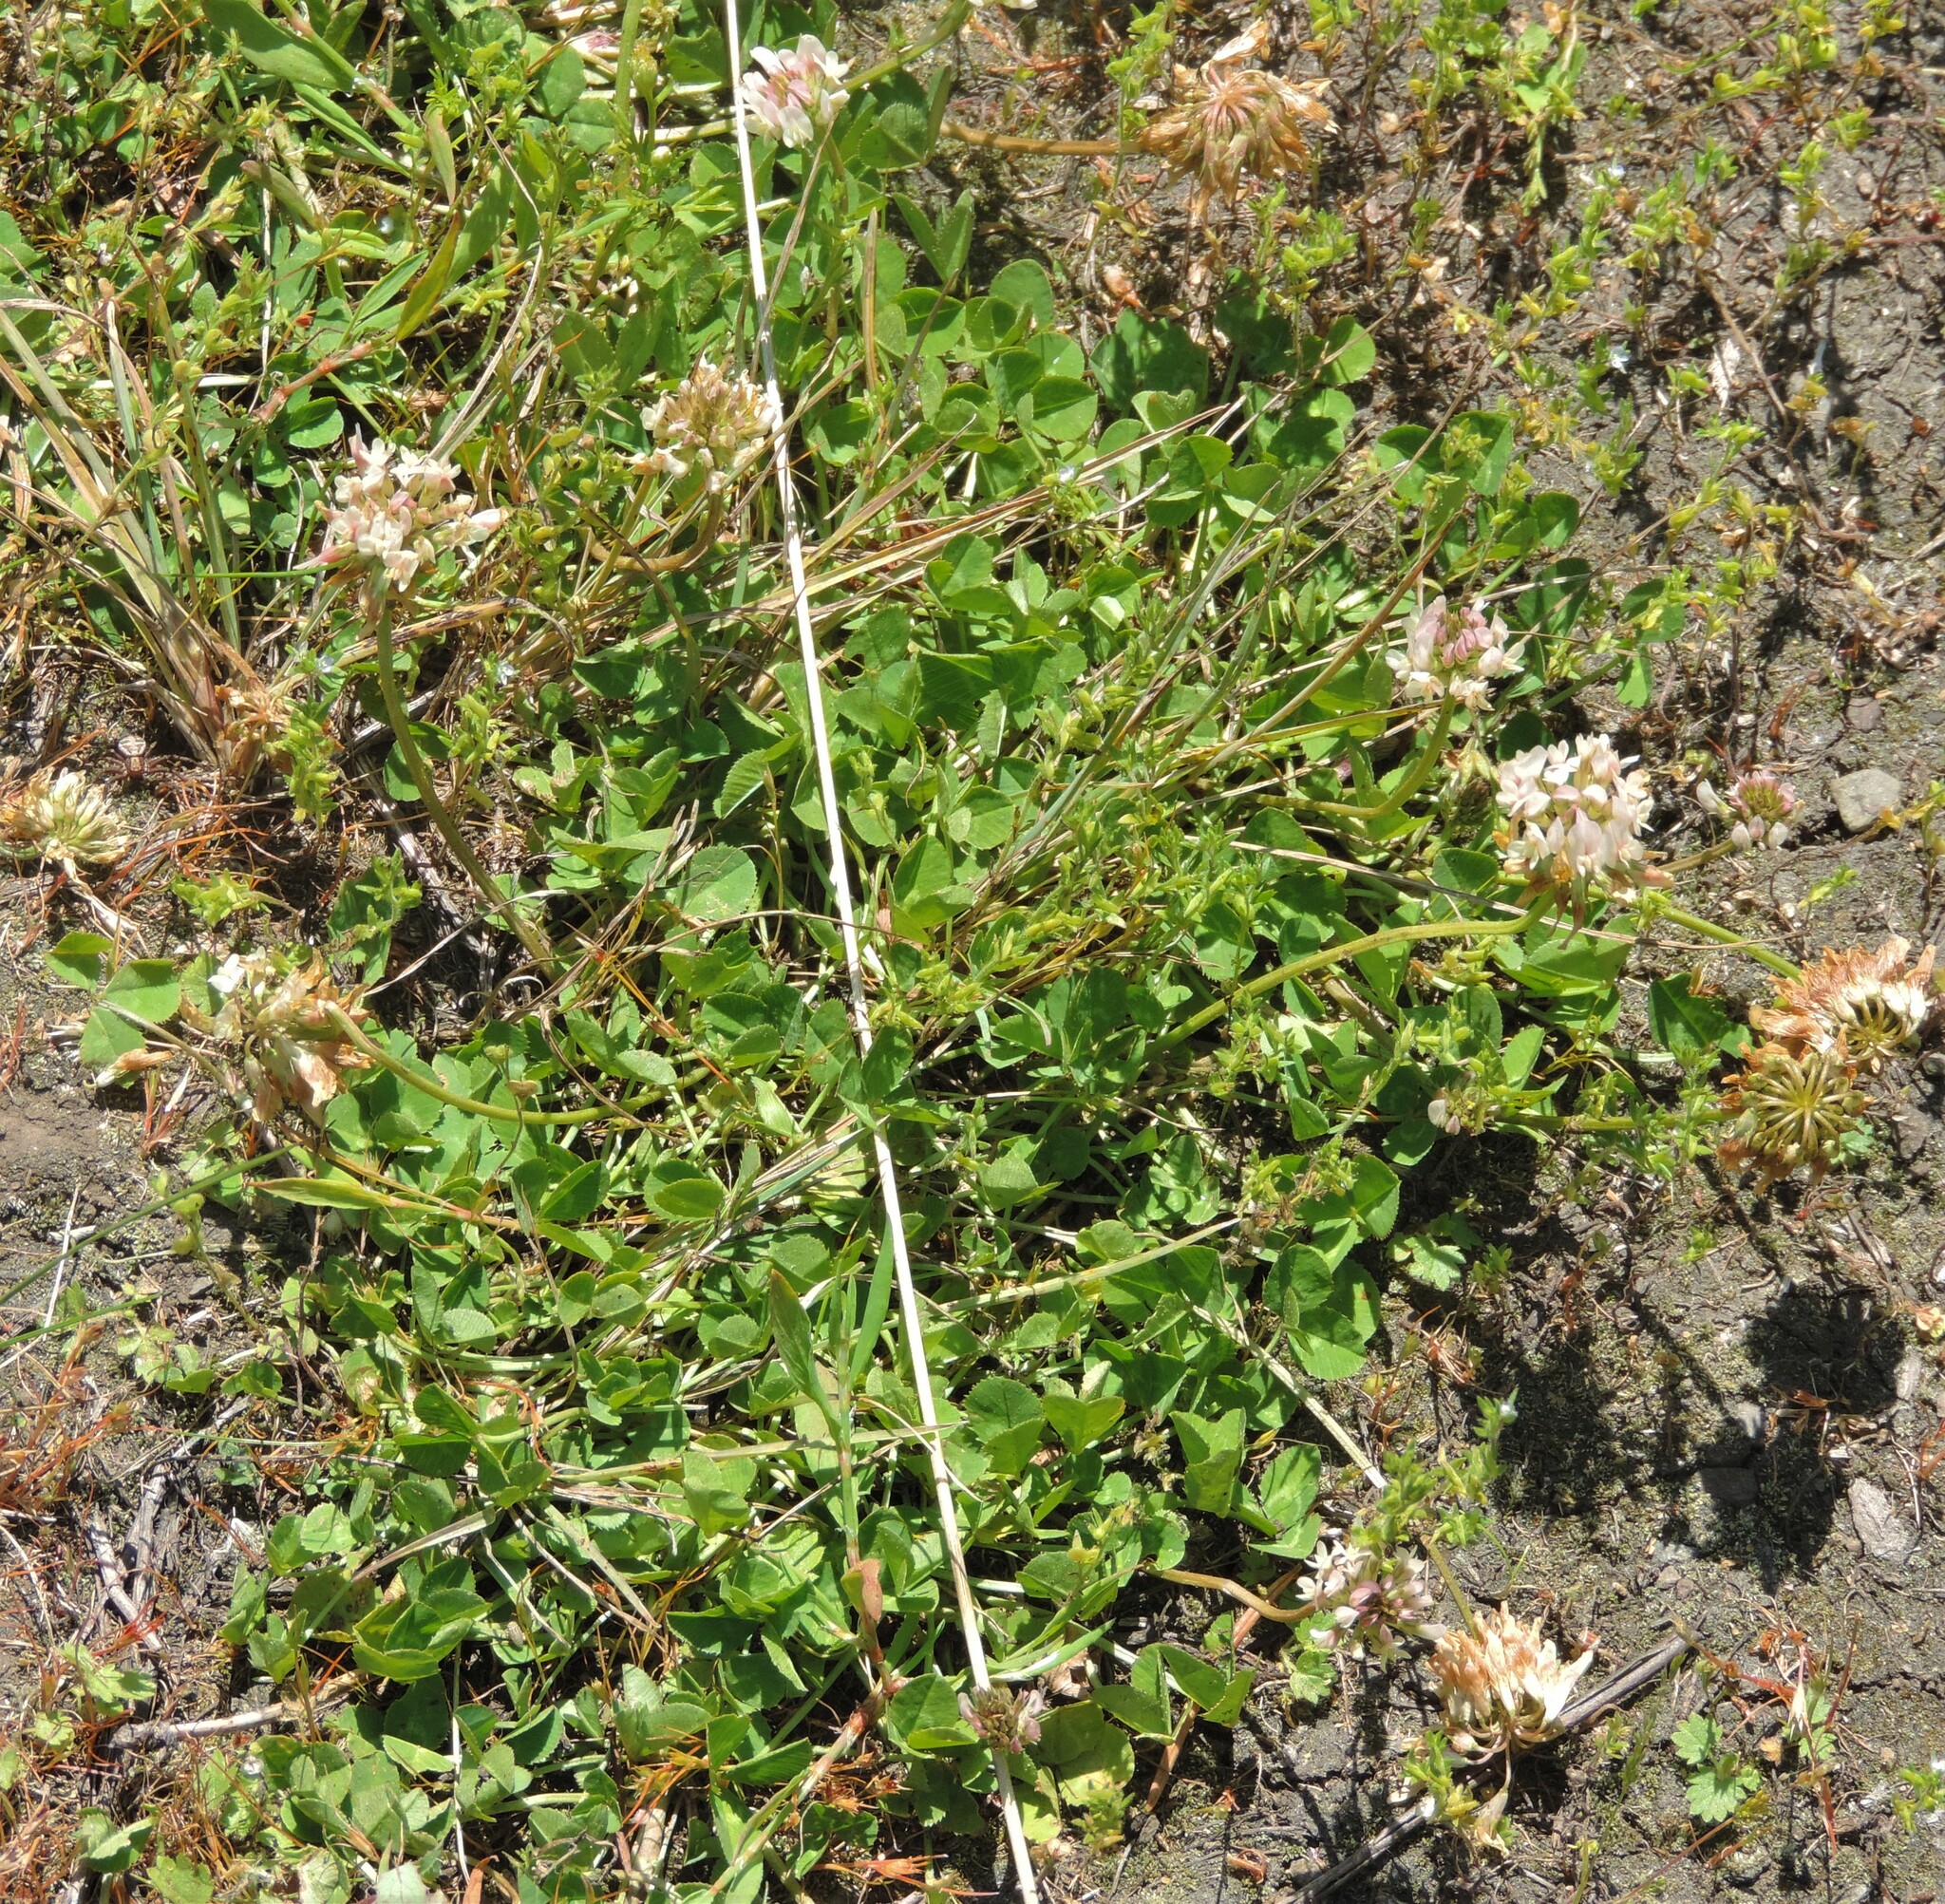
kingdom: Plantae
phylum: Tracheophyta
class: Magnoliopsida
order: Fabales
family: Fabaceae
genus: Trifolium
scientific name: Trifolium repens
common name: White clover
